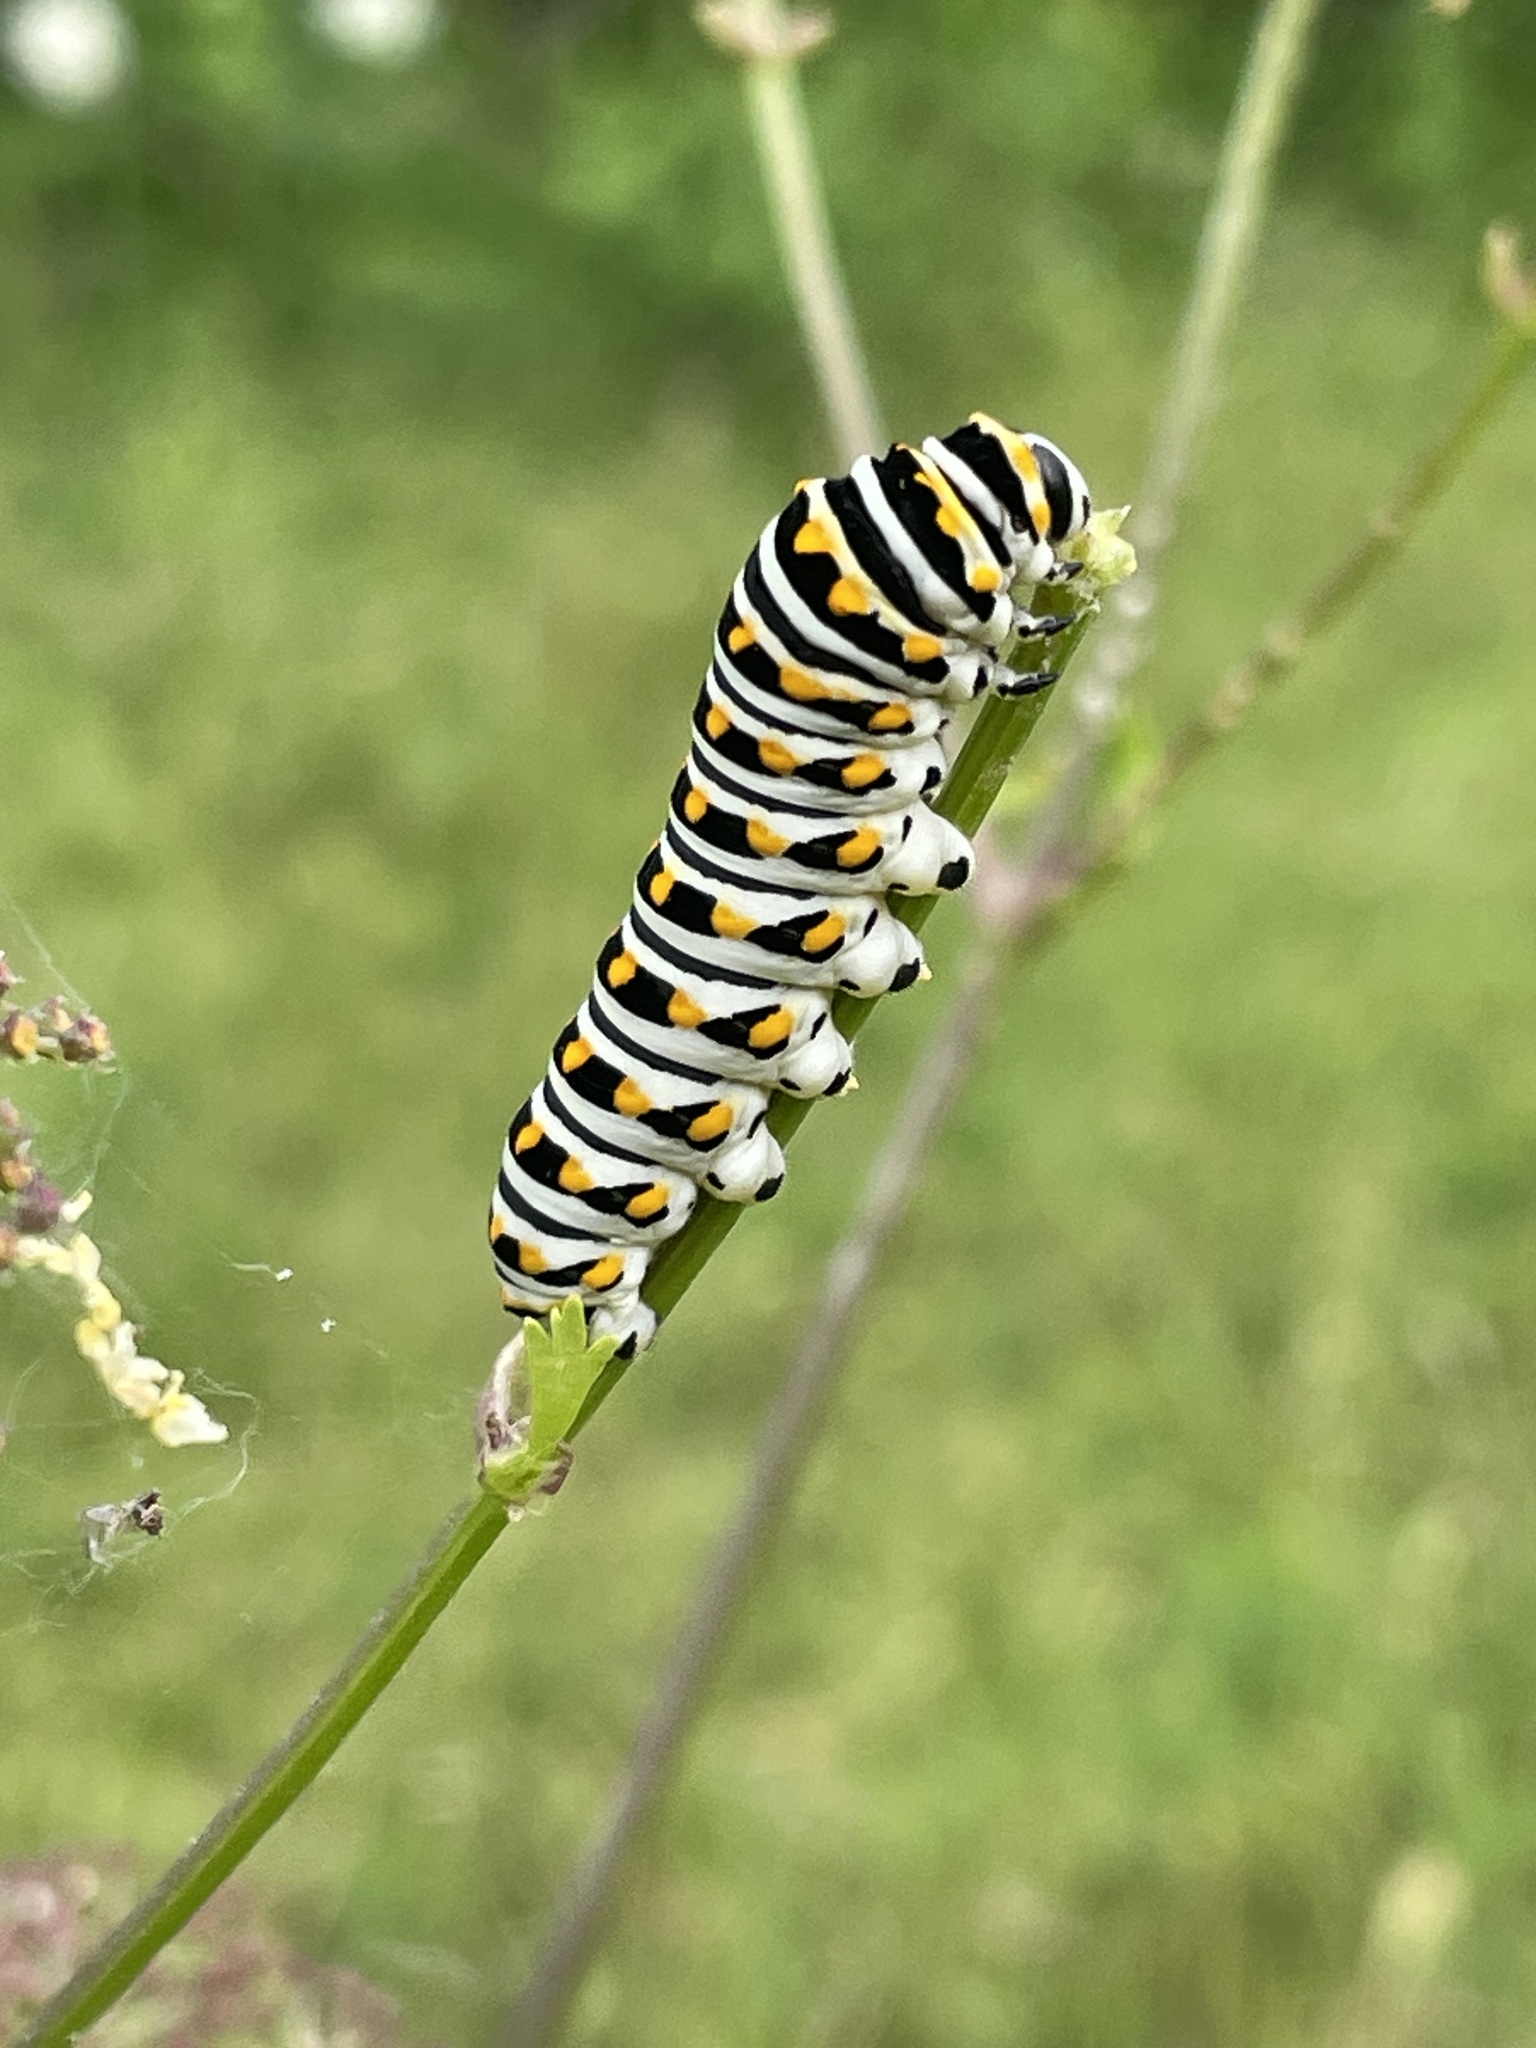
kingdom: Animalia
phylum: Arthropoda
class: Insecta
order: Lepidoptera
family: Papilionidae
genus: Papilio
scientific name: Papilio polyxenes
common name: Black swallowtail
